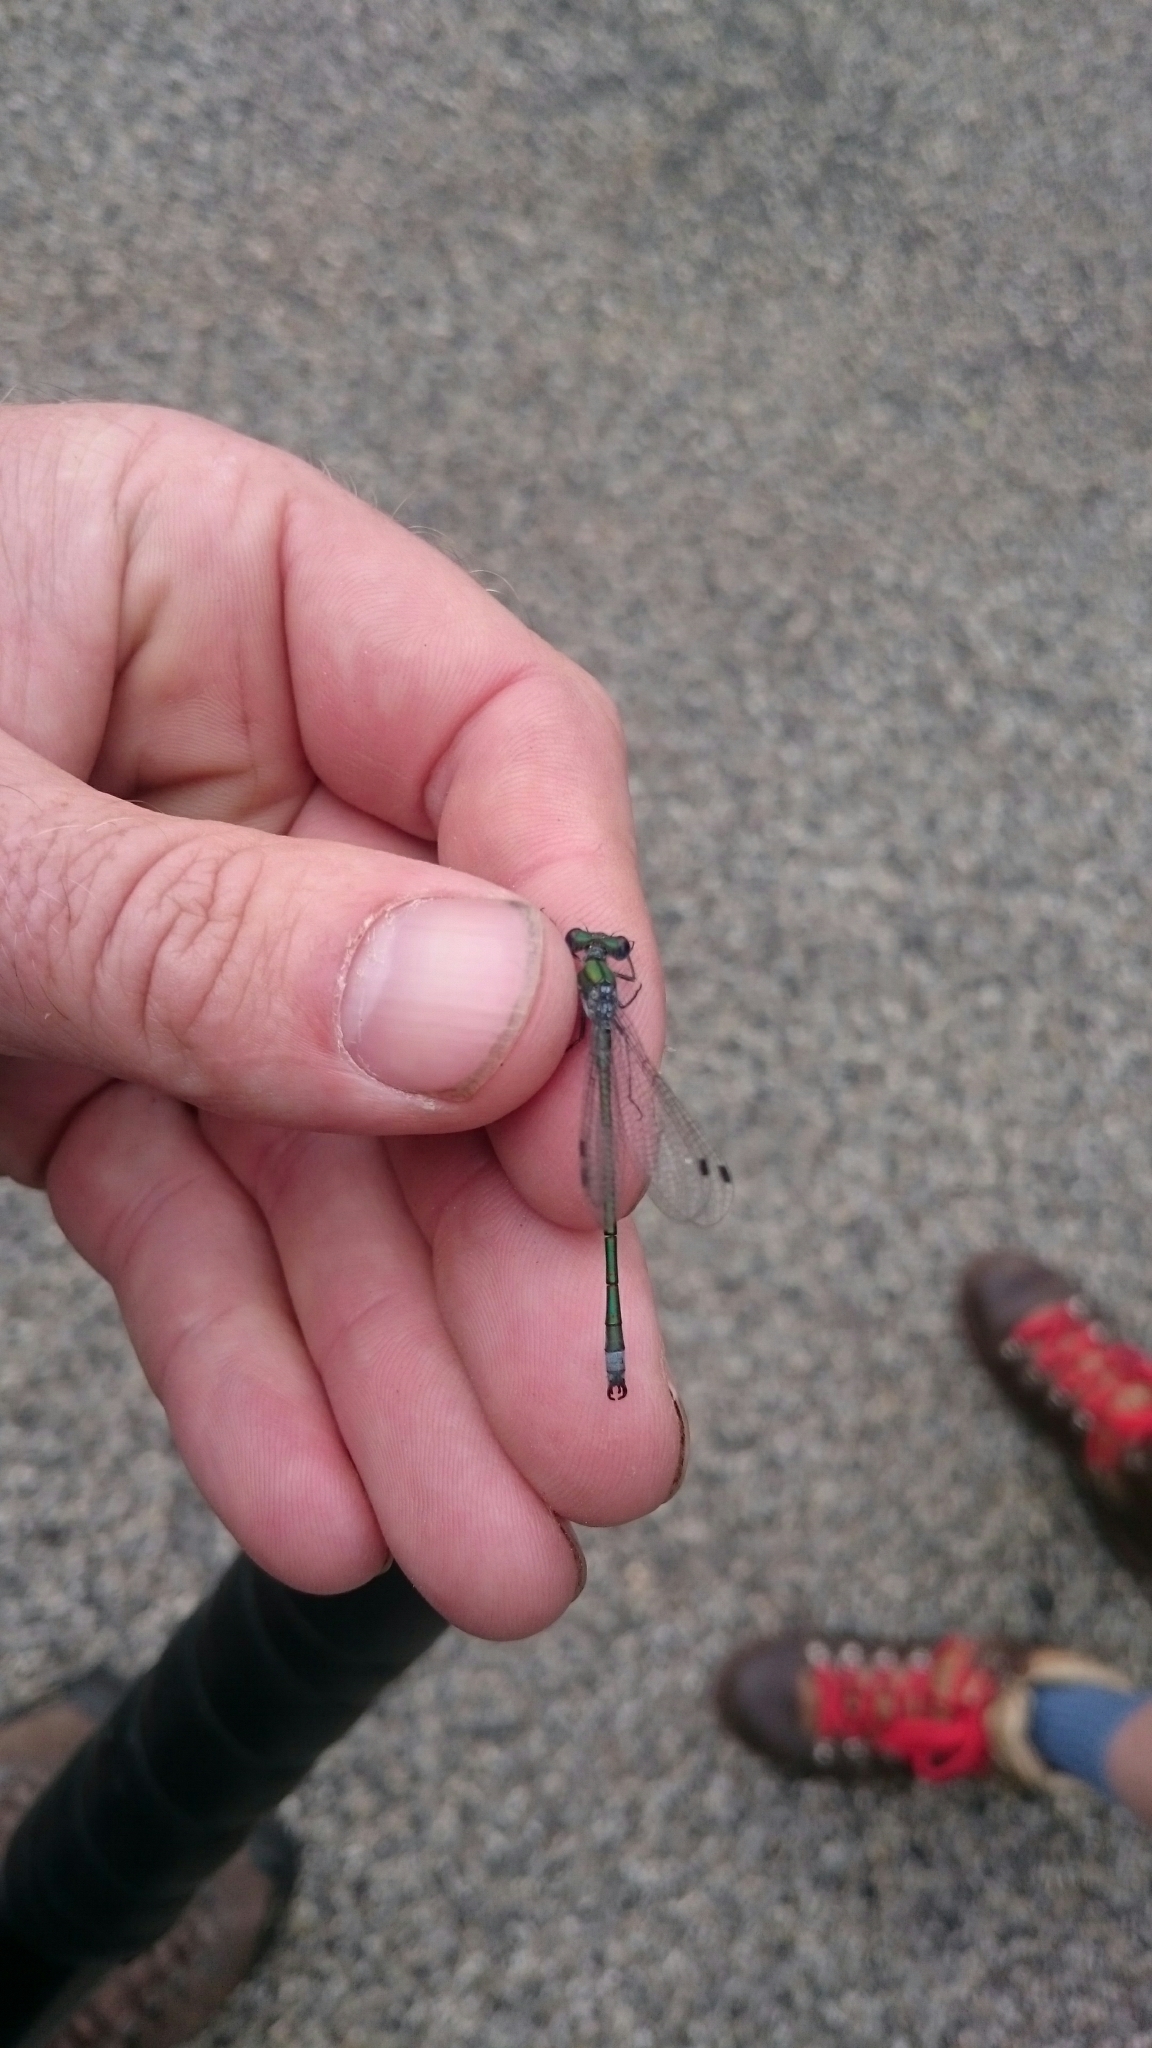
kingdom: Animalia
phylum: Arthropoda
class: Insecta
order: Odonata
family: Lestidae
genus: Lestes
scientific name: Lestes dryas
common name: Scarce emerald damselfly
